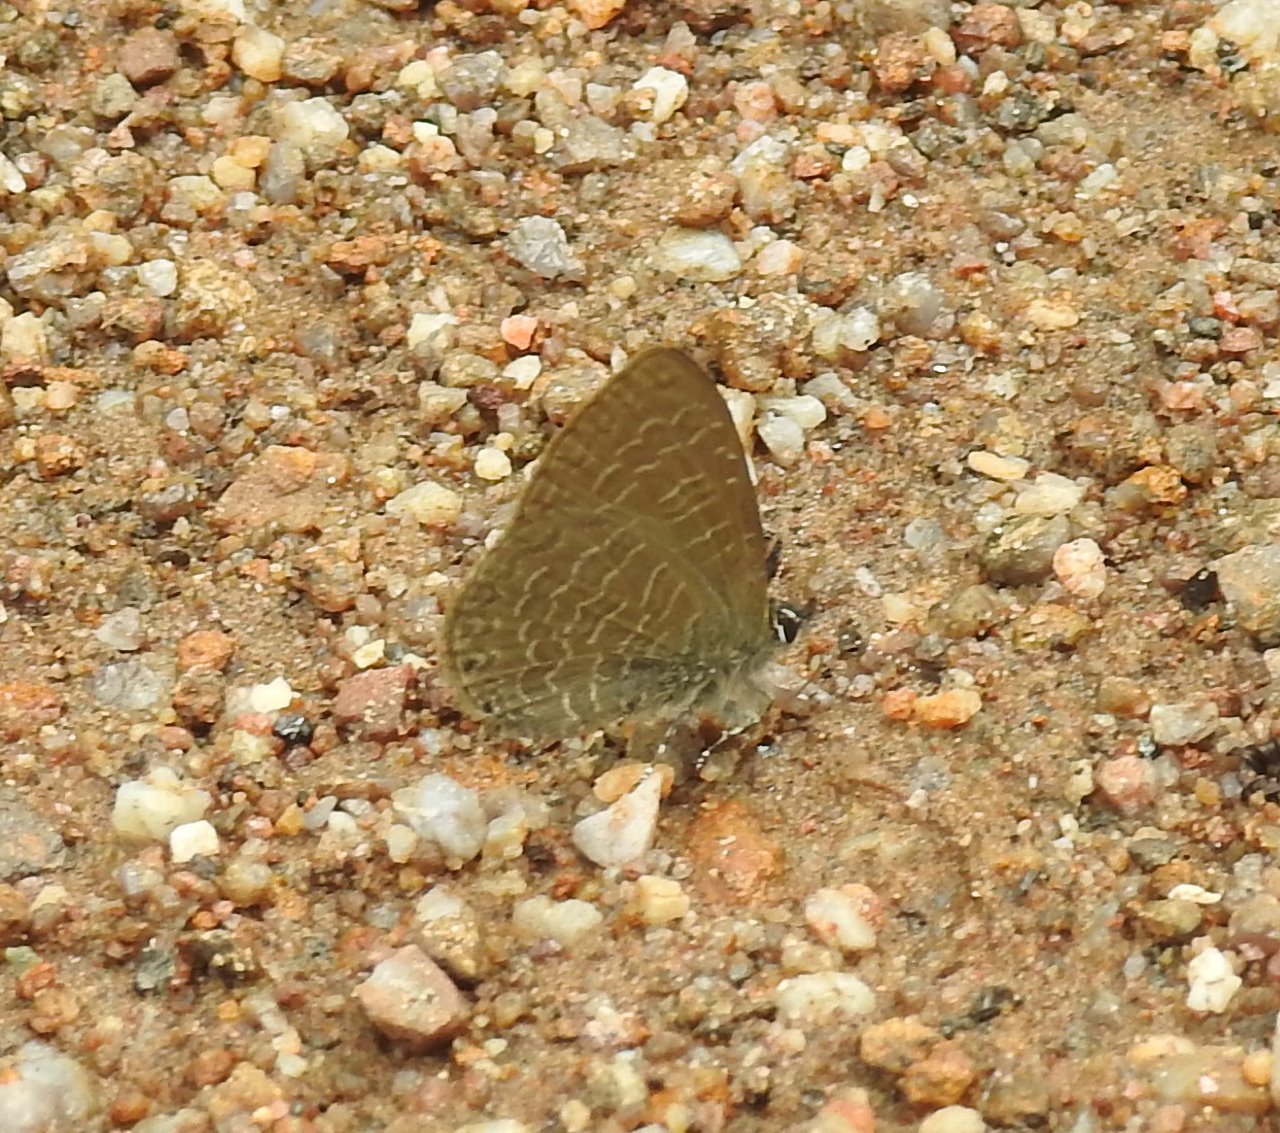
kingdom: Animalia
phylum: Arthropoda
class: Insecta
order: Lepidoptera
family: Lycaenidae
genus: Petrelaea
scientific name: Petrelaea dana
